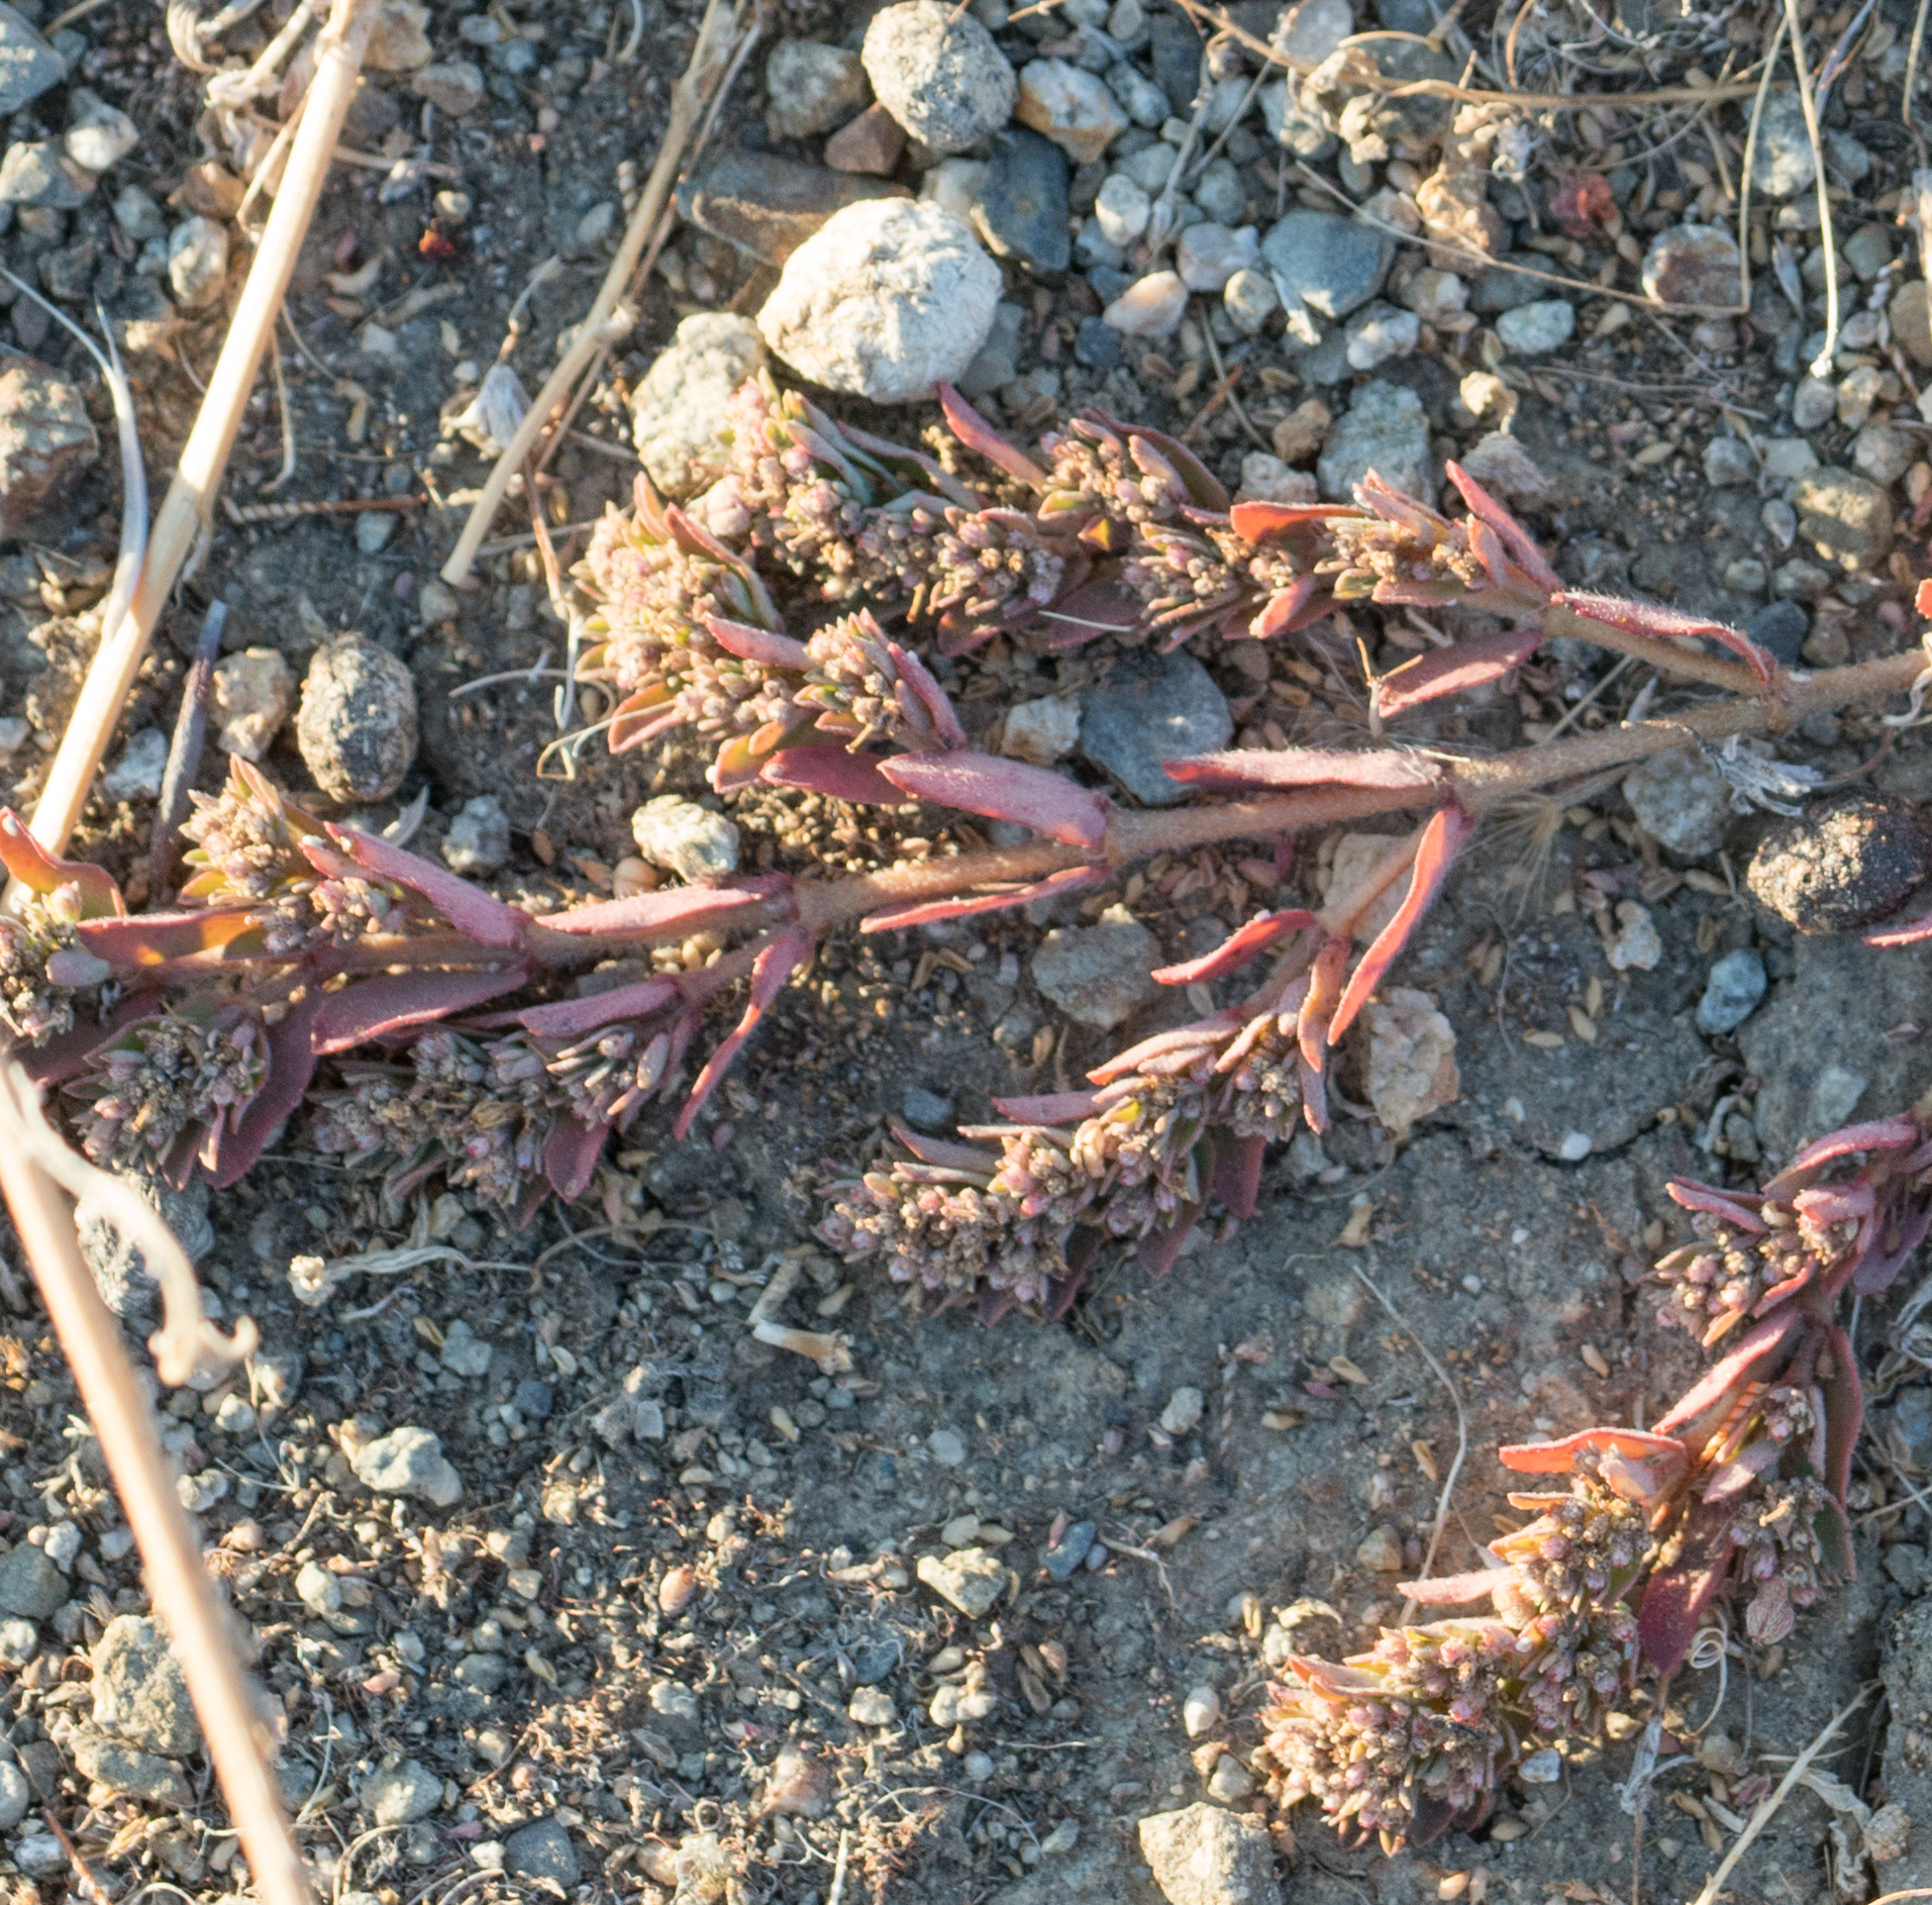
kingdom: Plantae
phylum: Tracheophyta
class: Magnoliopsida
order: Malpighiales
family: Euphorbiaceae
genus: Euphorbia
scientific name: Euphorbia maculata
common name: Spotted spurge
